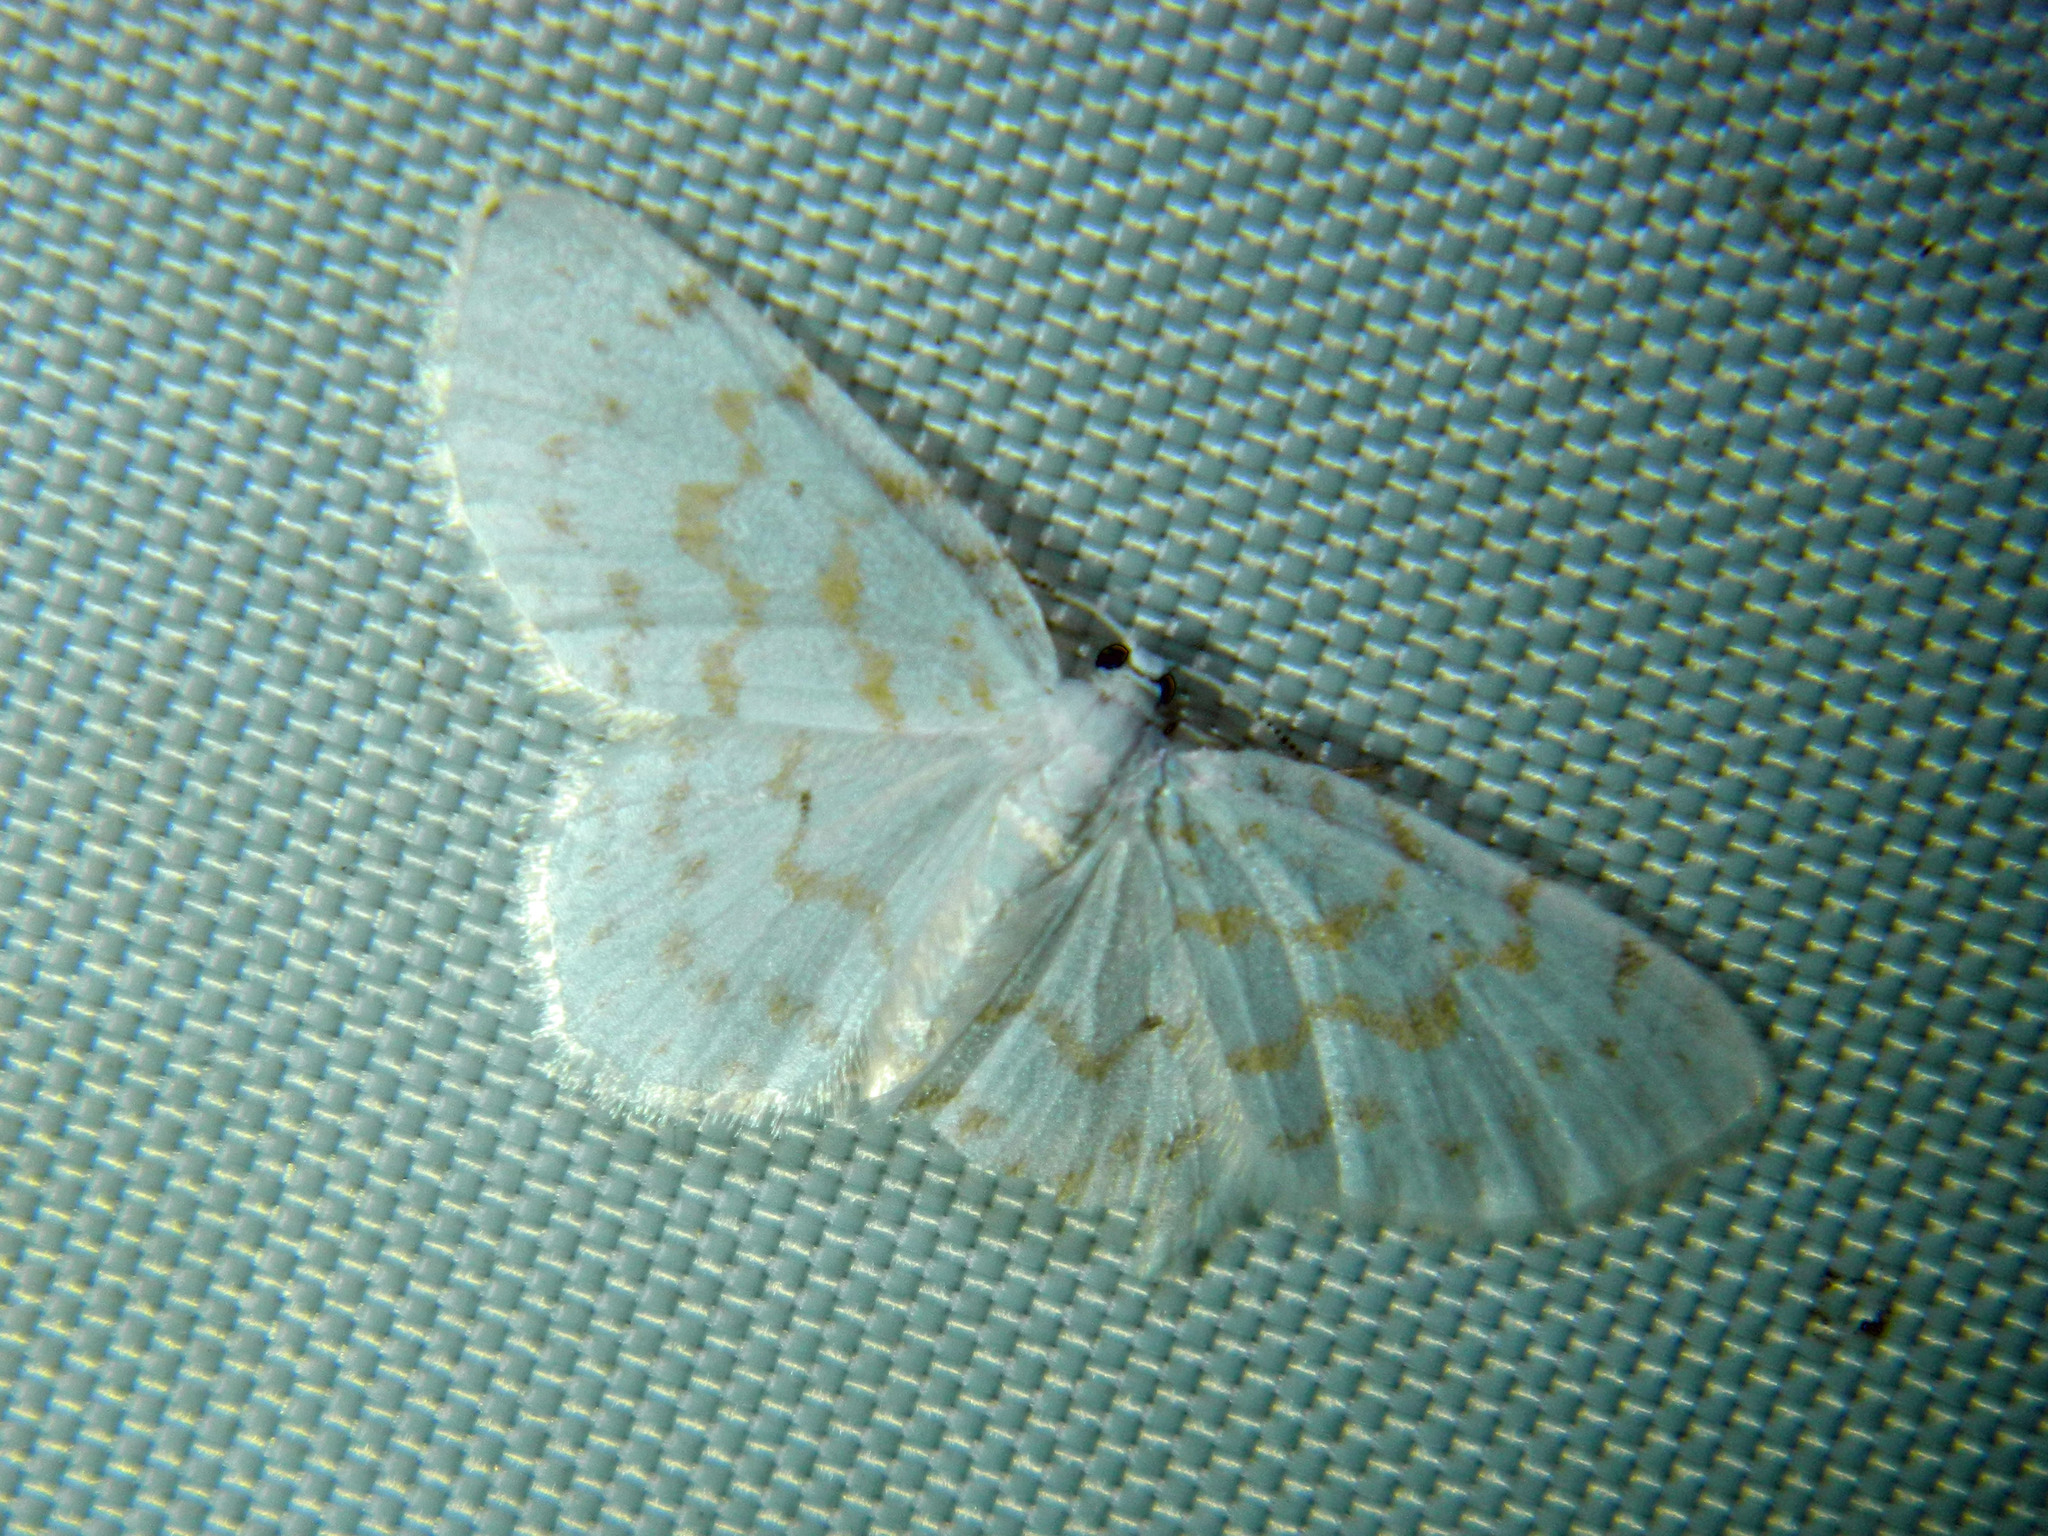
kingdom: Animalia
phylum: Arthropoda
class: Insecta
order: Lepidoptera
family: Geometridae
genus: Hydrelia
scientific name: Hydrelia albifera
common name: Fragile white carpet
